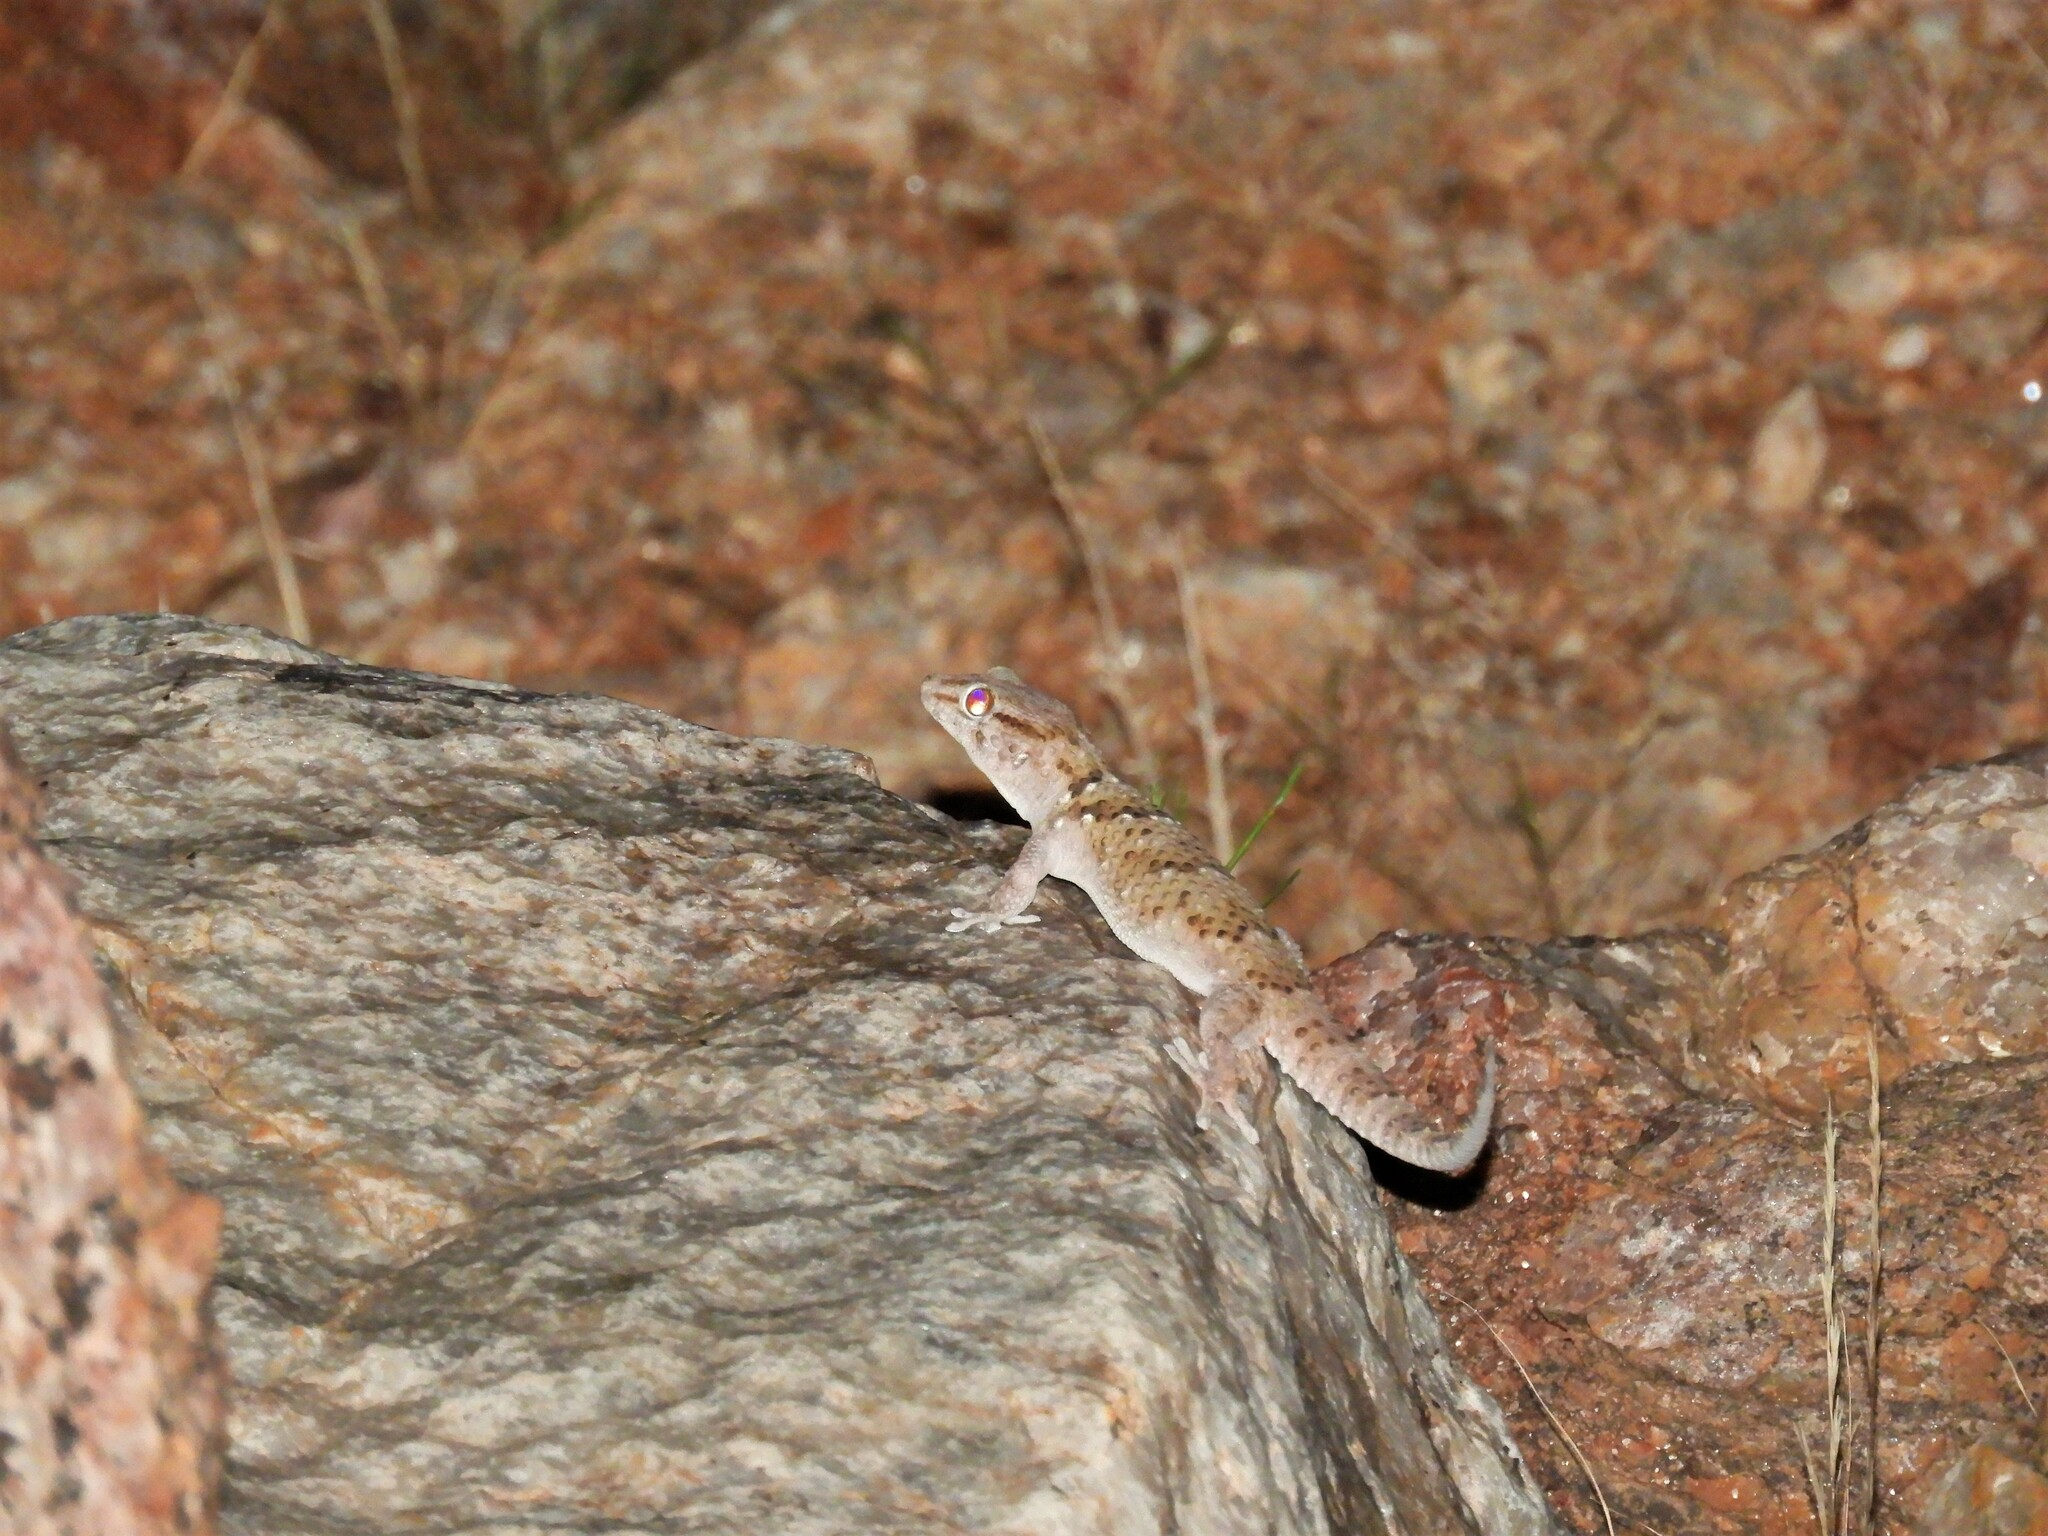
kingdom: Animalia
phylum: Chordata
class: Squamata
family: Gekkonidae
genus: Chondrodactylus
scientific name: Chondrodactylus laevigatus
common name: Fischer's thick-toed gecko
